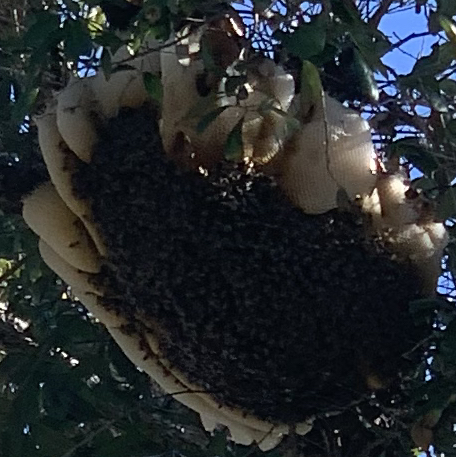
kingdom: Animalia
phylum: Arthropoda
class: Insecta
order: Hymenoptera
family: Apidae
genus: Apis
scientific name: Apis mellifera
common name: Honey bee
